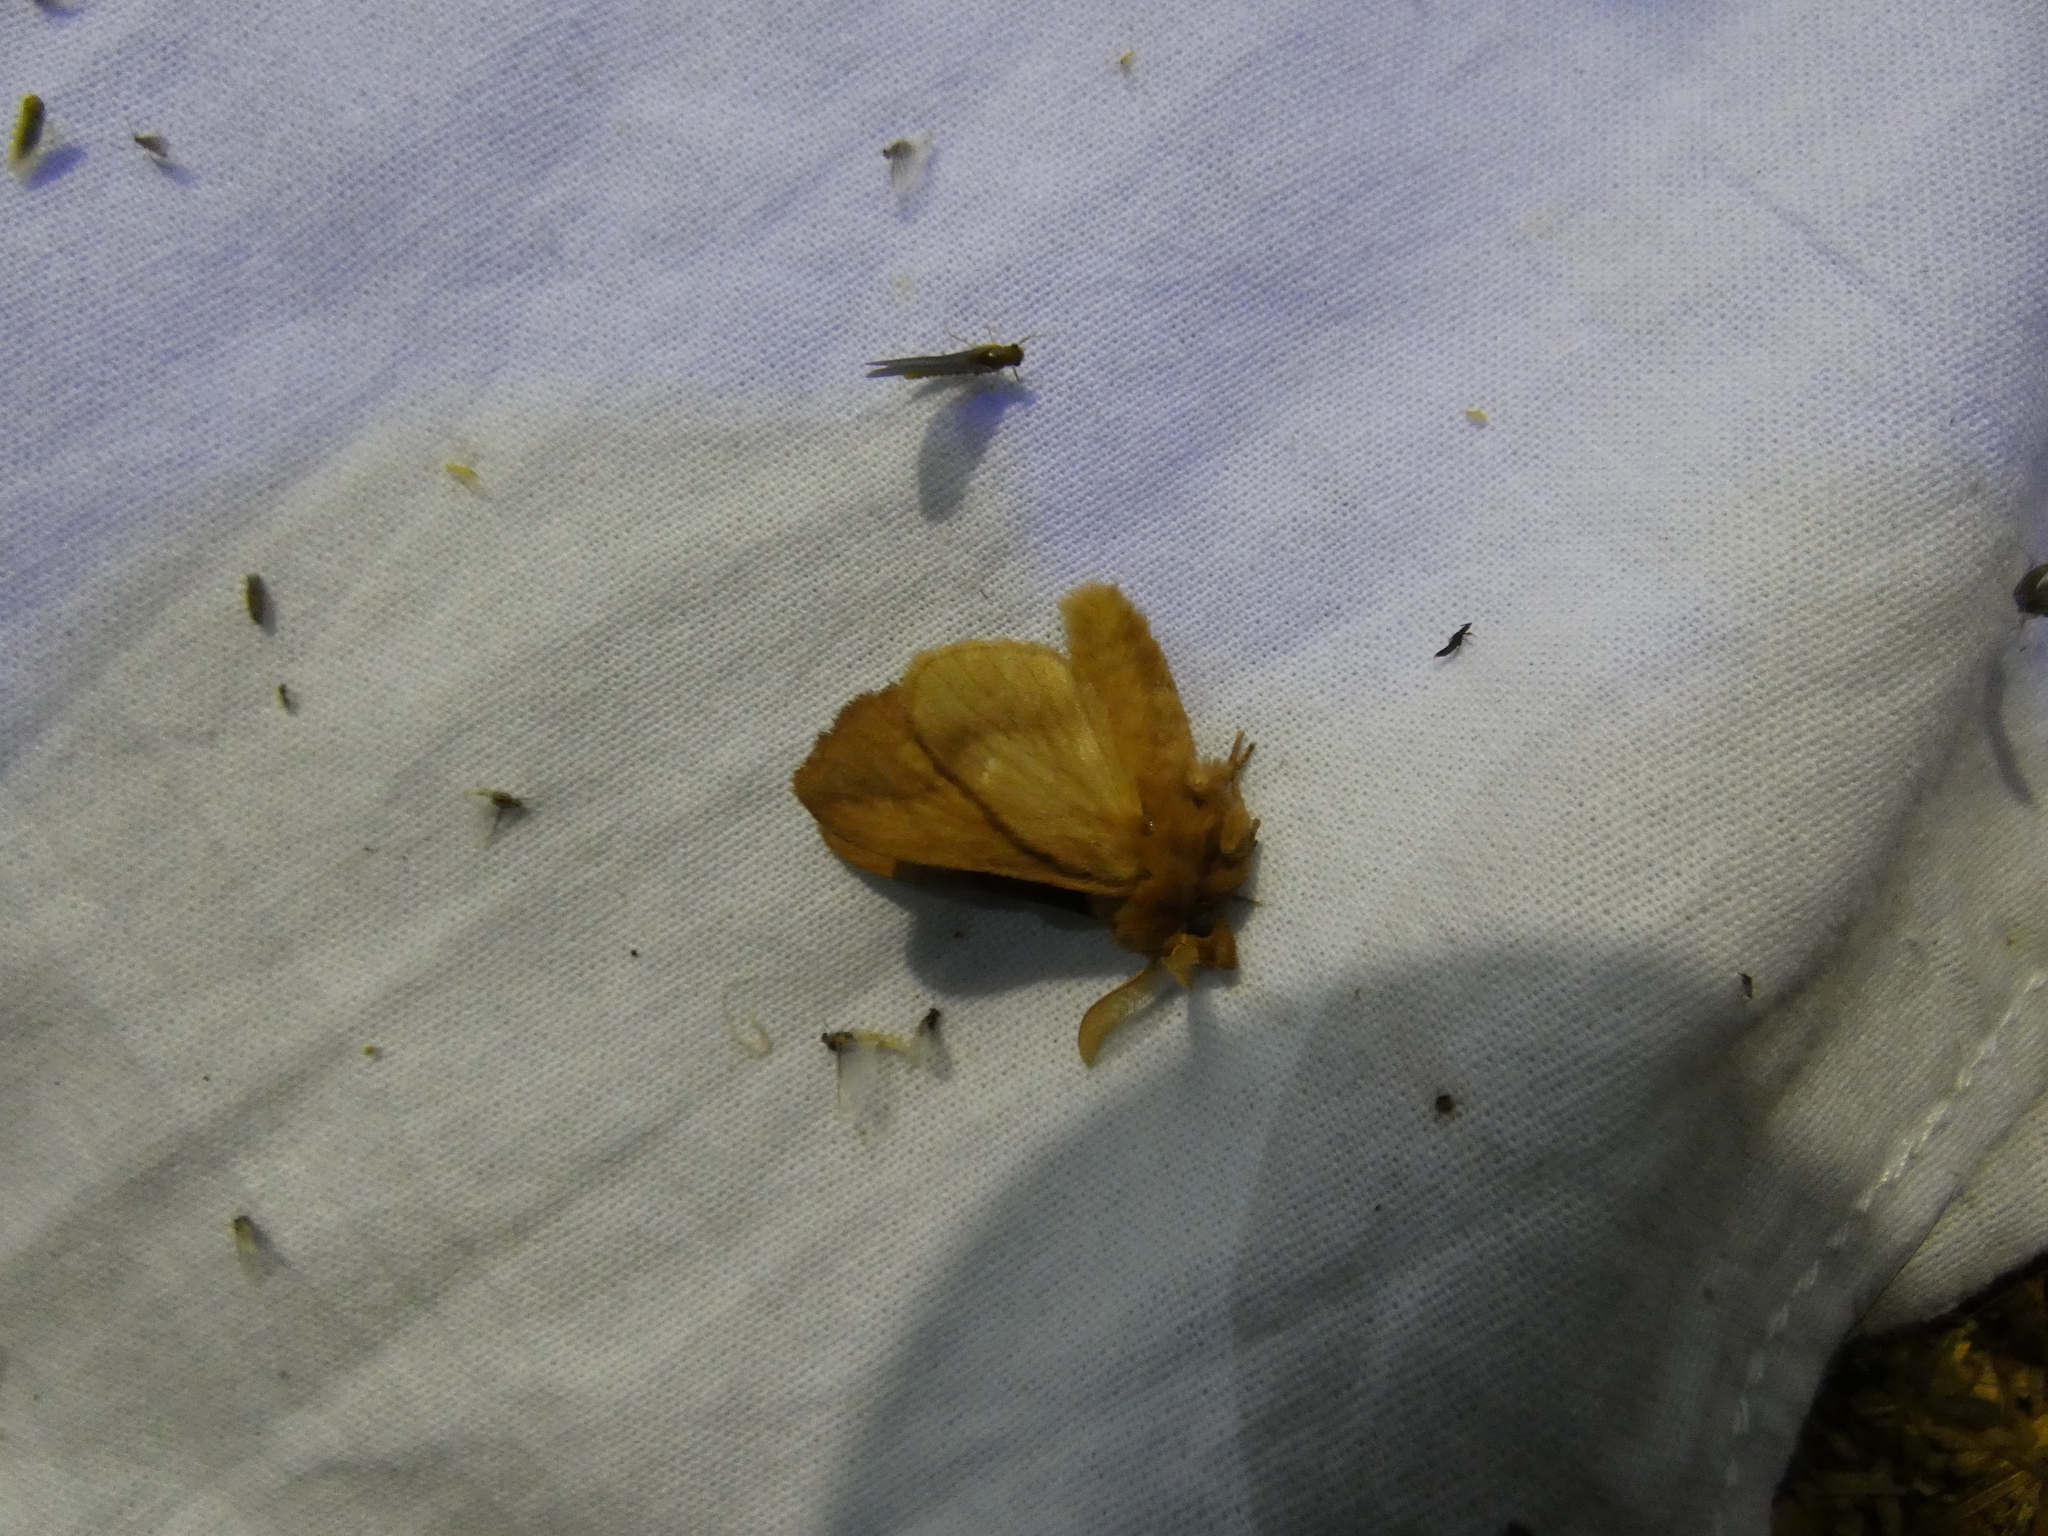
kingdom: Animalia
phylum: Arthropoda
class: Insecta
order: Lepidoptera
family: Lasiocampidae
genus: Euthrix
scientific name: Euthrix potatoria
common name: Drinker
